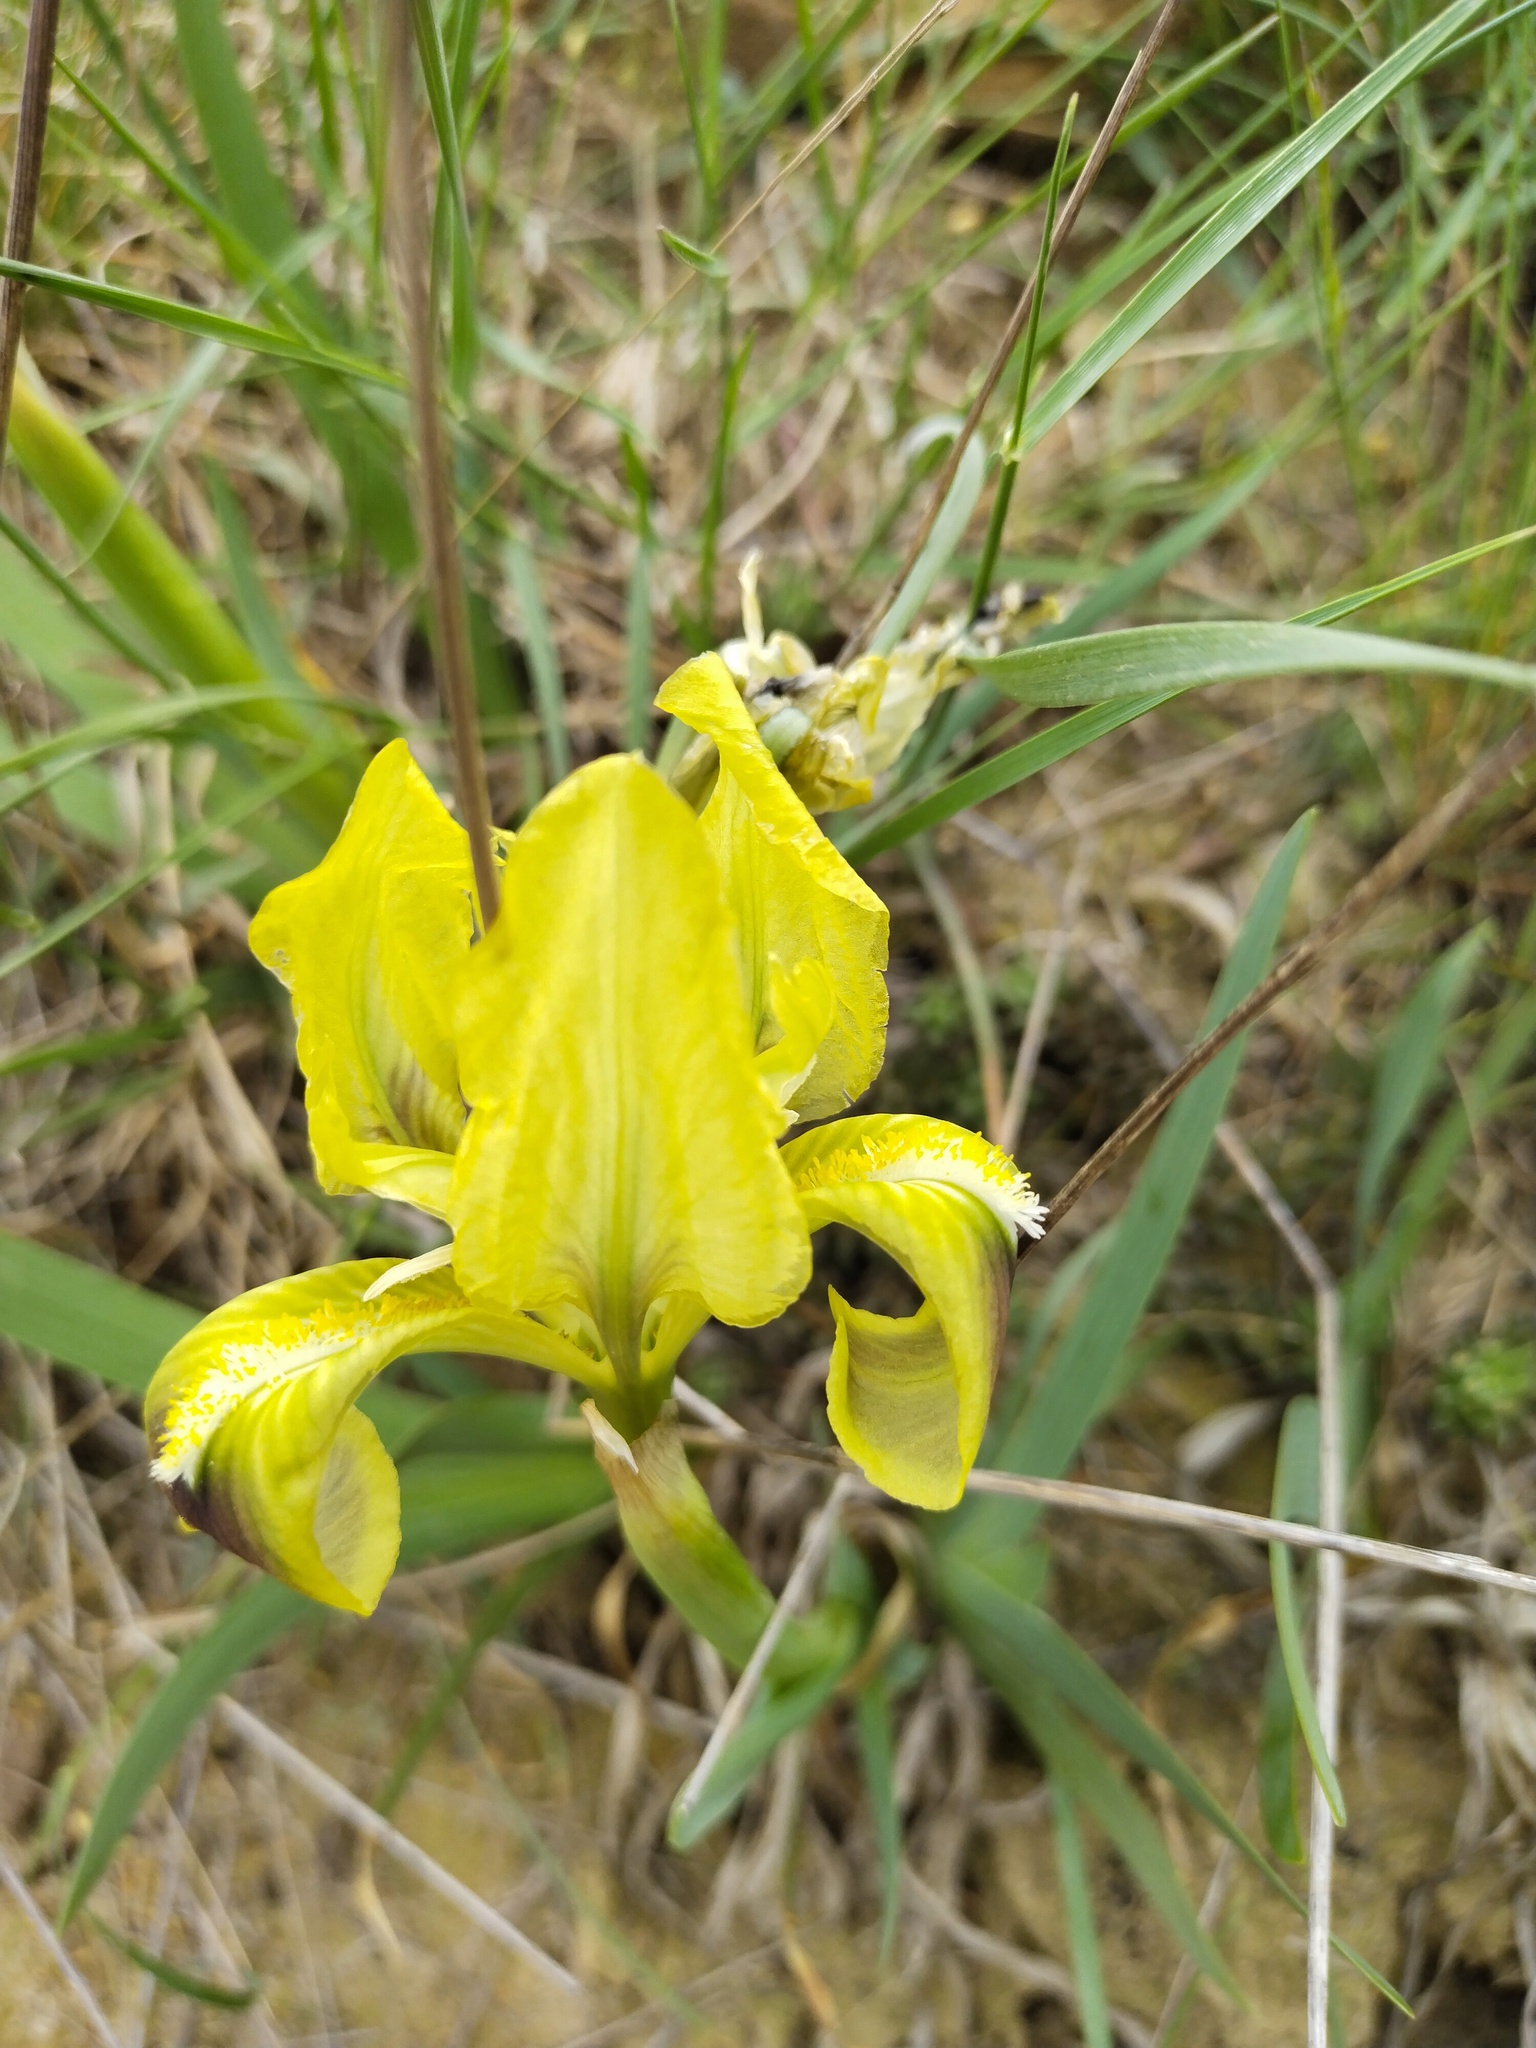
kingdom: Plantae
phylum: Tracheophyta
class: Liliopsida
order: Asparagales
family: Iridaceae
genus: Iris
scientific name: Iris pumila
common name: Dwarf iris
